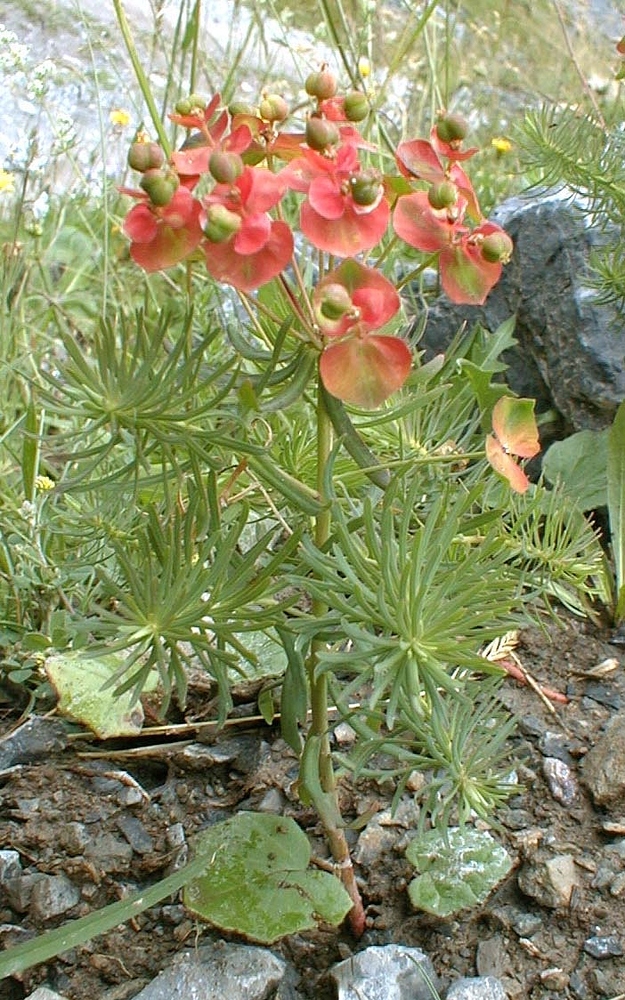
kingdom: Plantae
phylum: Tracheophyta
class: Magnoliopsida
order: Malpighiales
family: Euphorbiaceae
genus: Euphorbia
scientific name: Euphorbia cyparissias
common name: Cypress spurge
